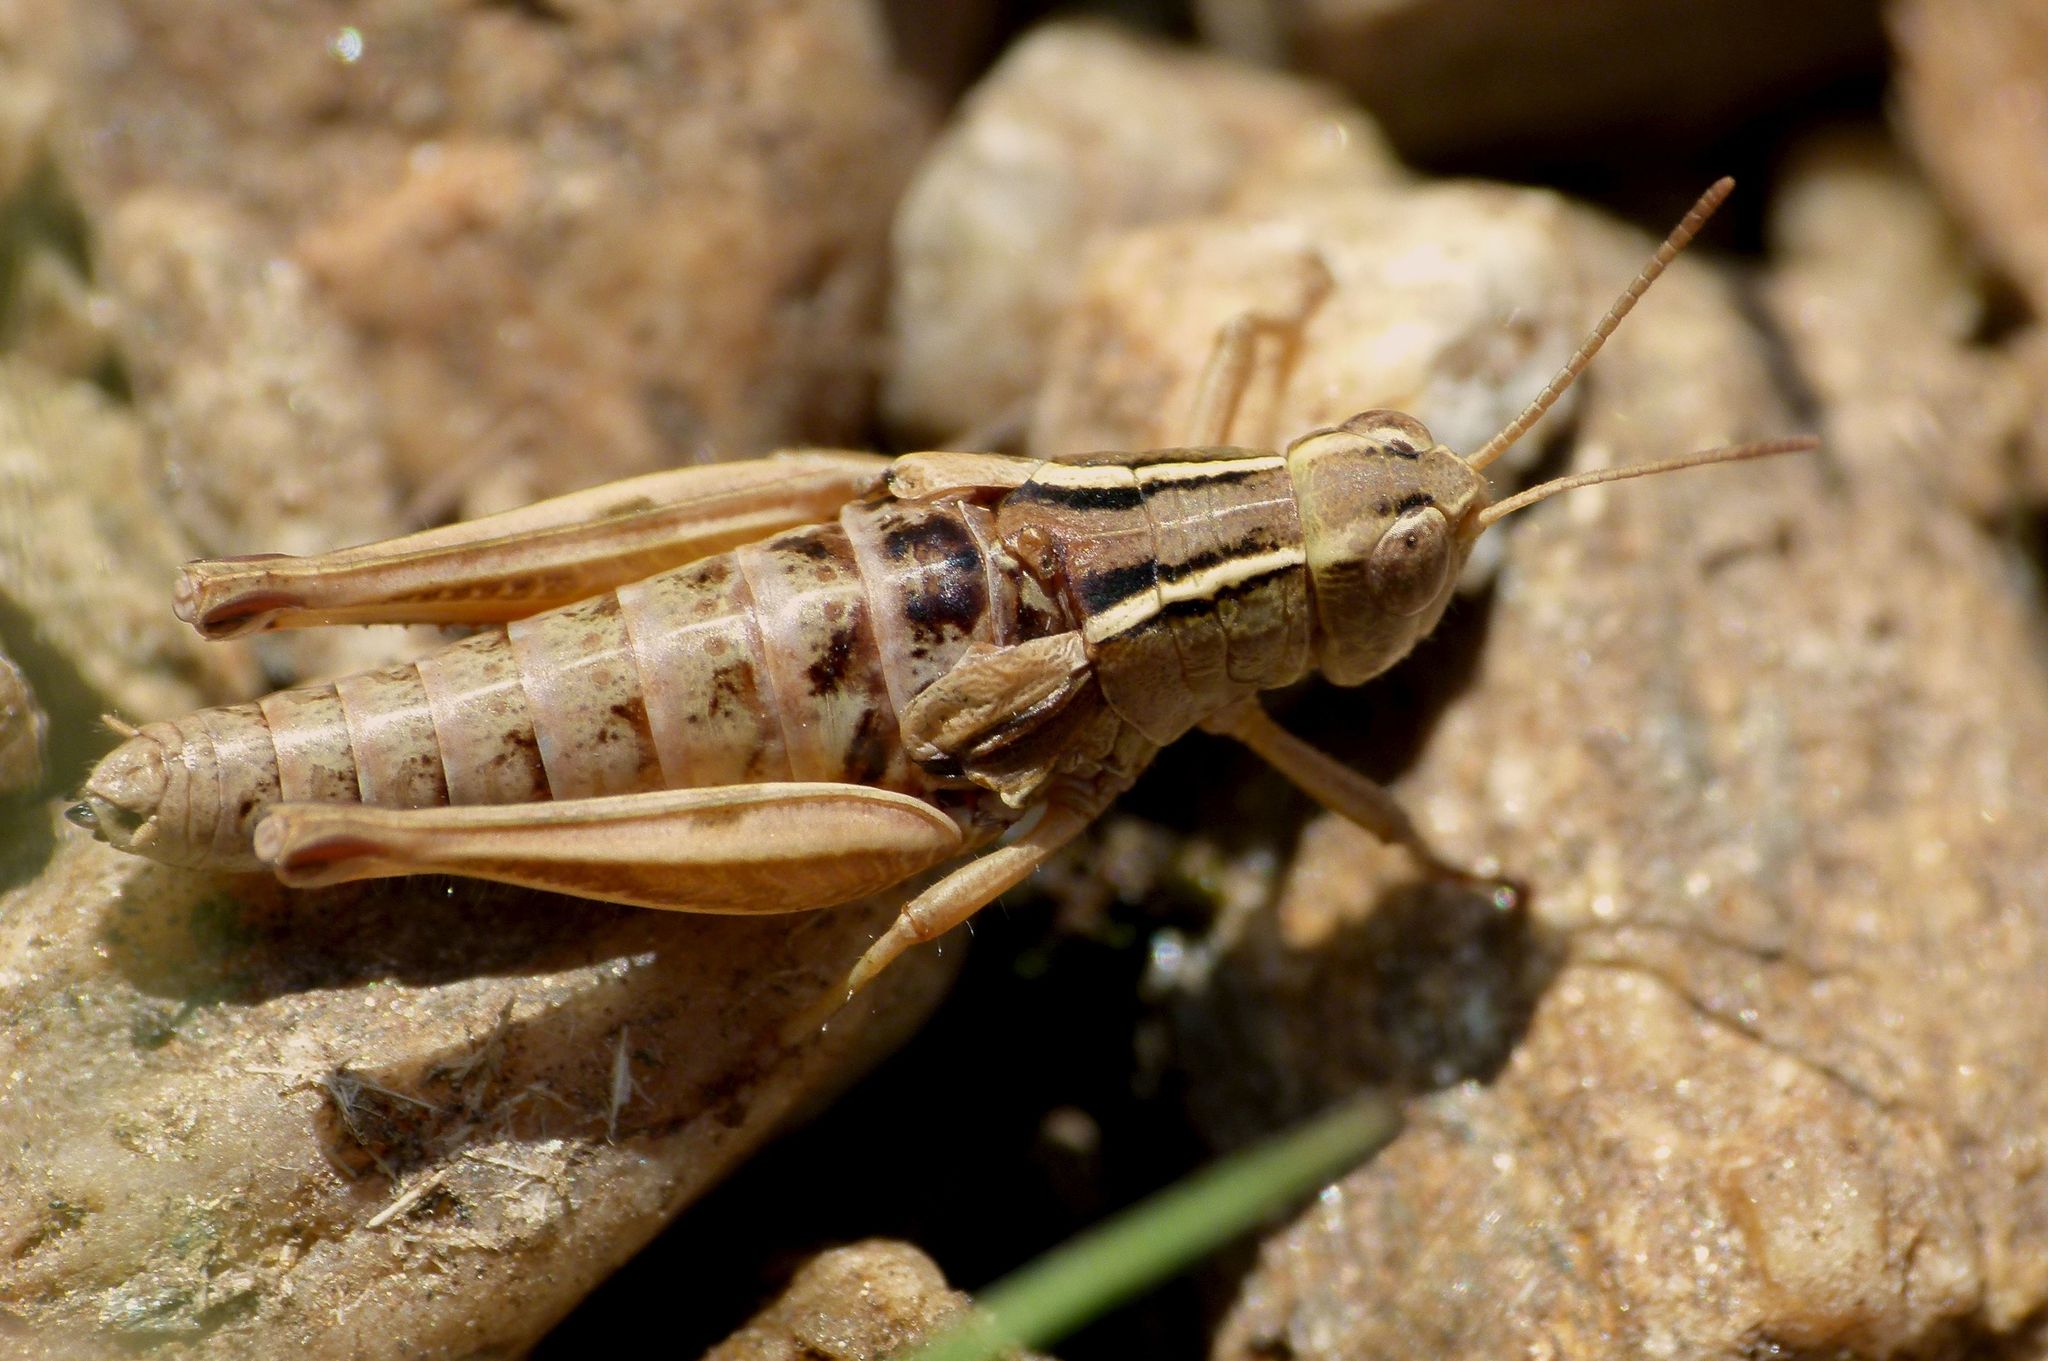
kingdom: Animalia
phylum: Arthropoda
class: Insecta
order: Orthoptera
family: Acrididae
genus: Phaulacridium
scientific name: Phaulacridium marginale
